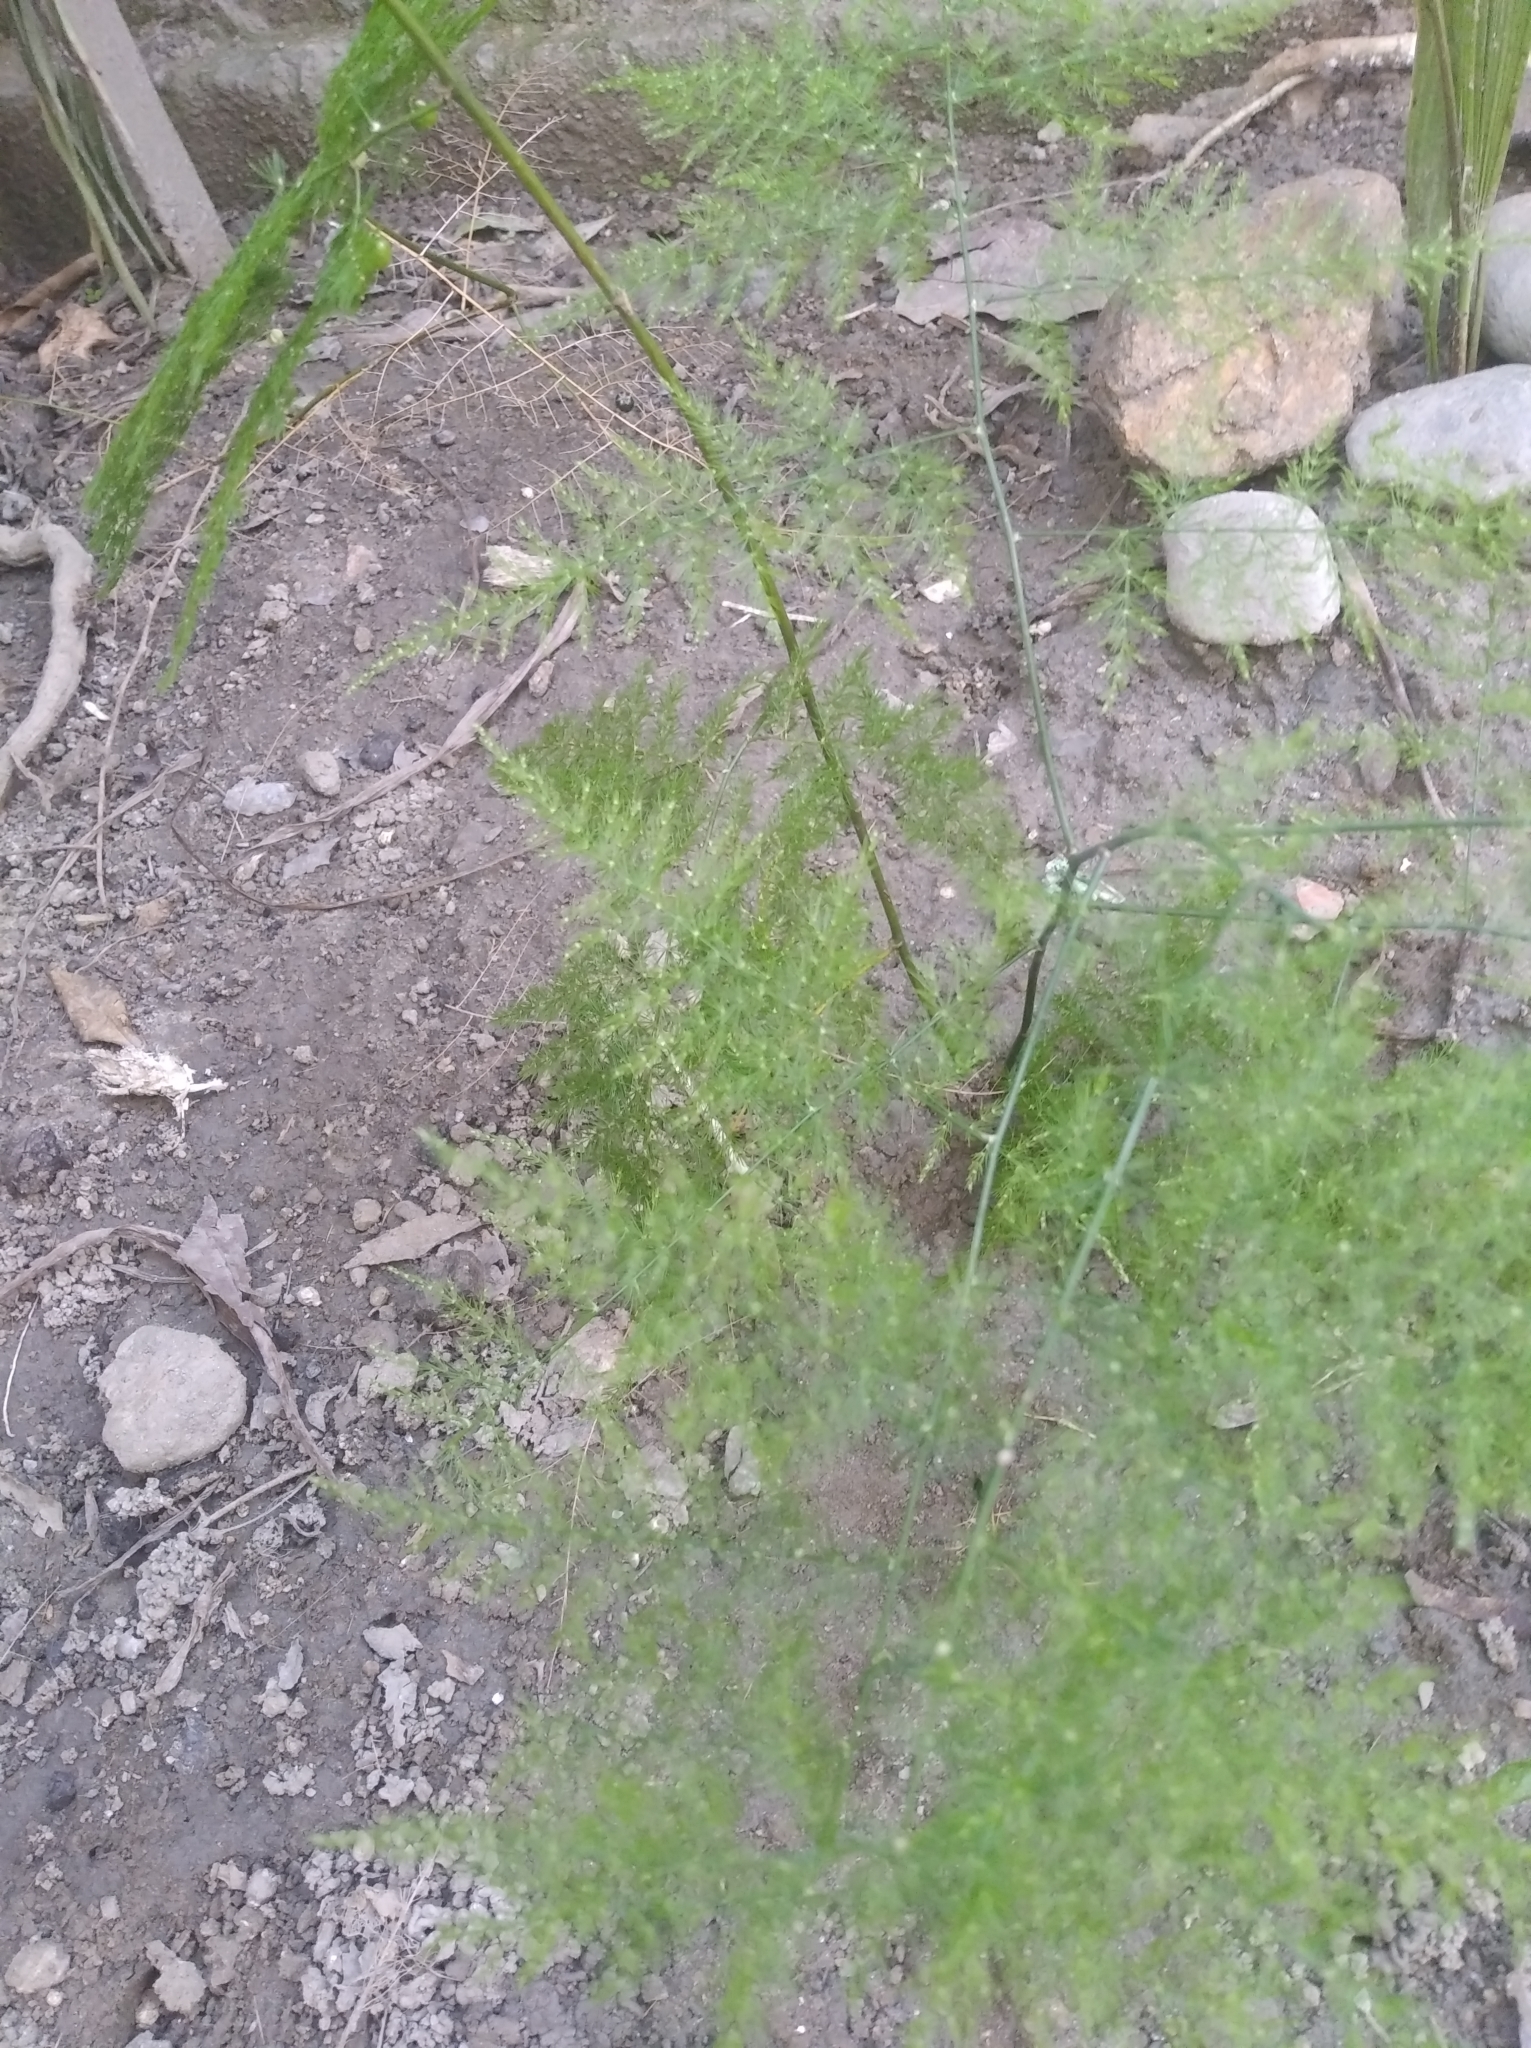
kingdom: Plantae
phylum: Tracheophyta
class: Liliopsida
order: Asparagales
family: Asparagaceae
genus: Asparagus
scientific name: Asparagus setaceus
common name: Common asparagus fern
